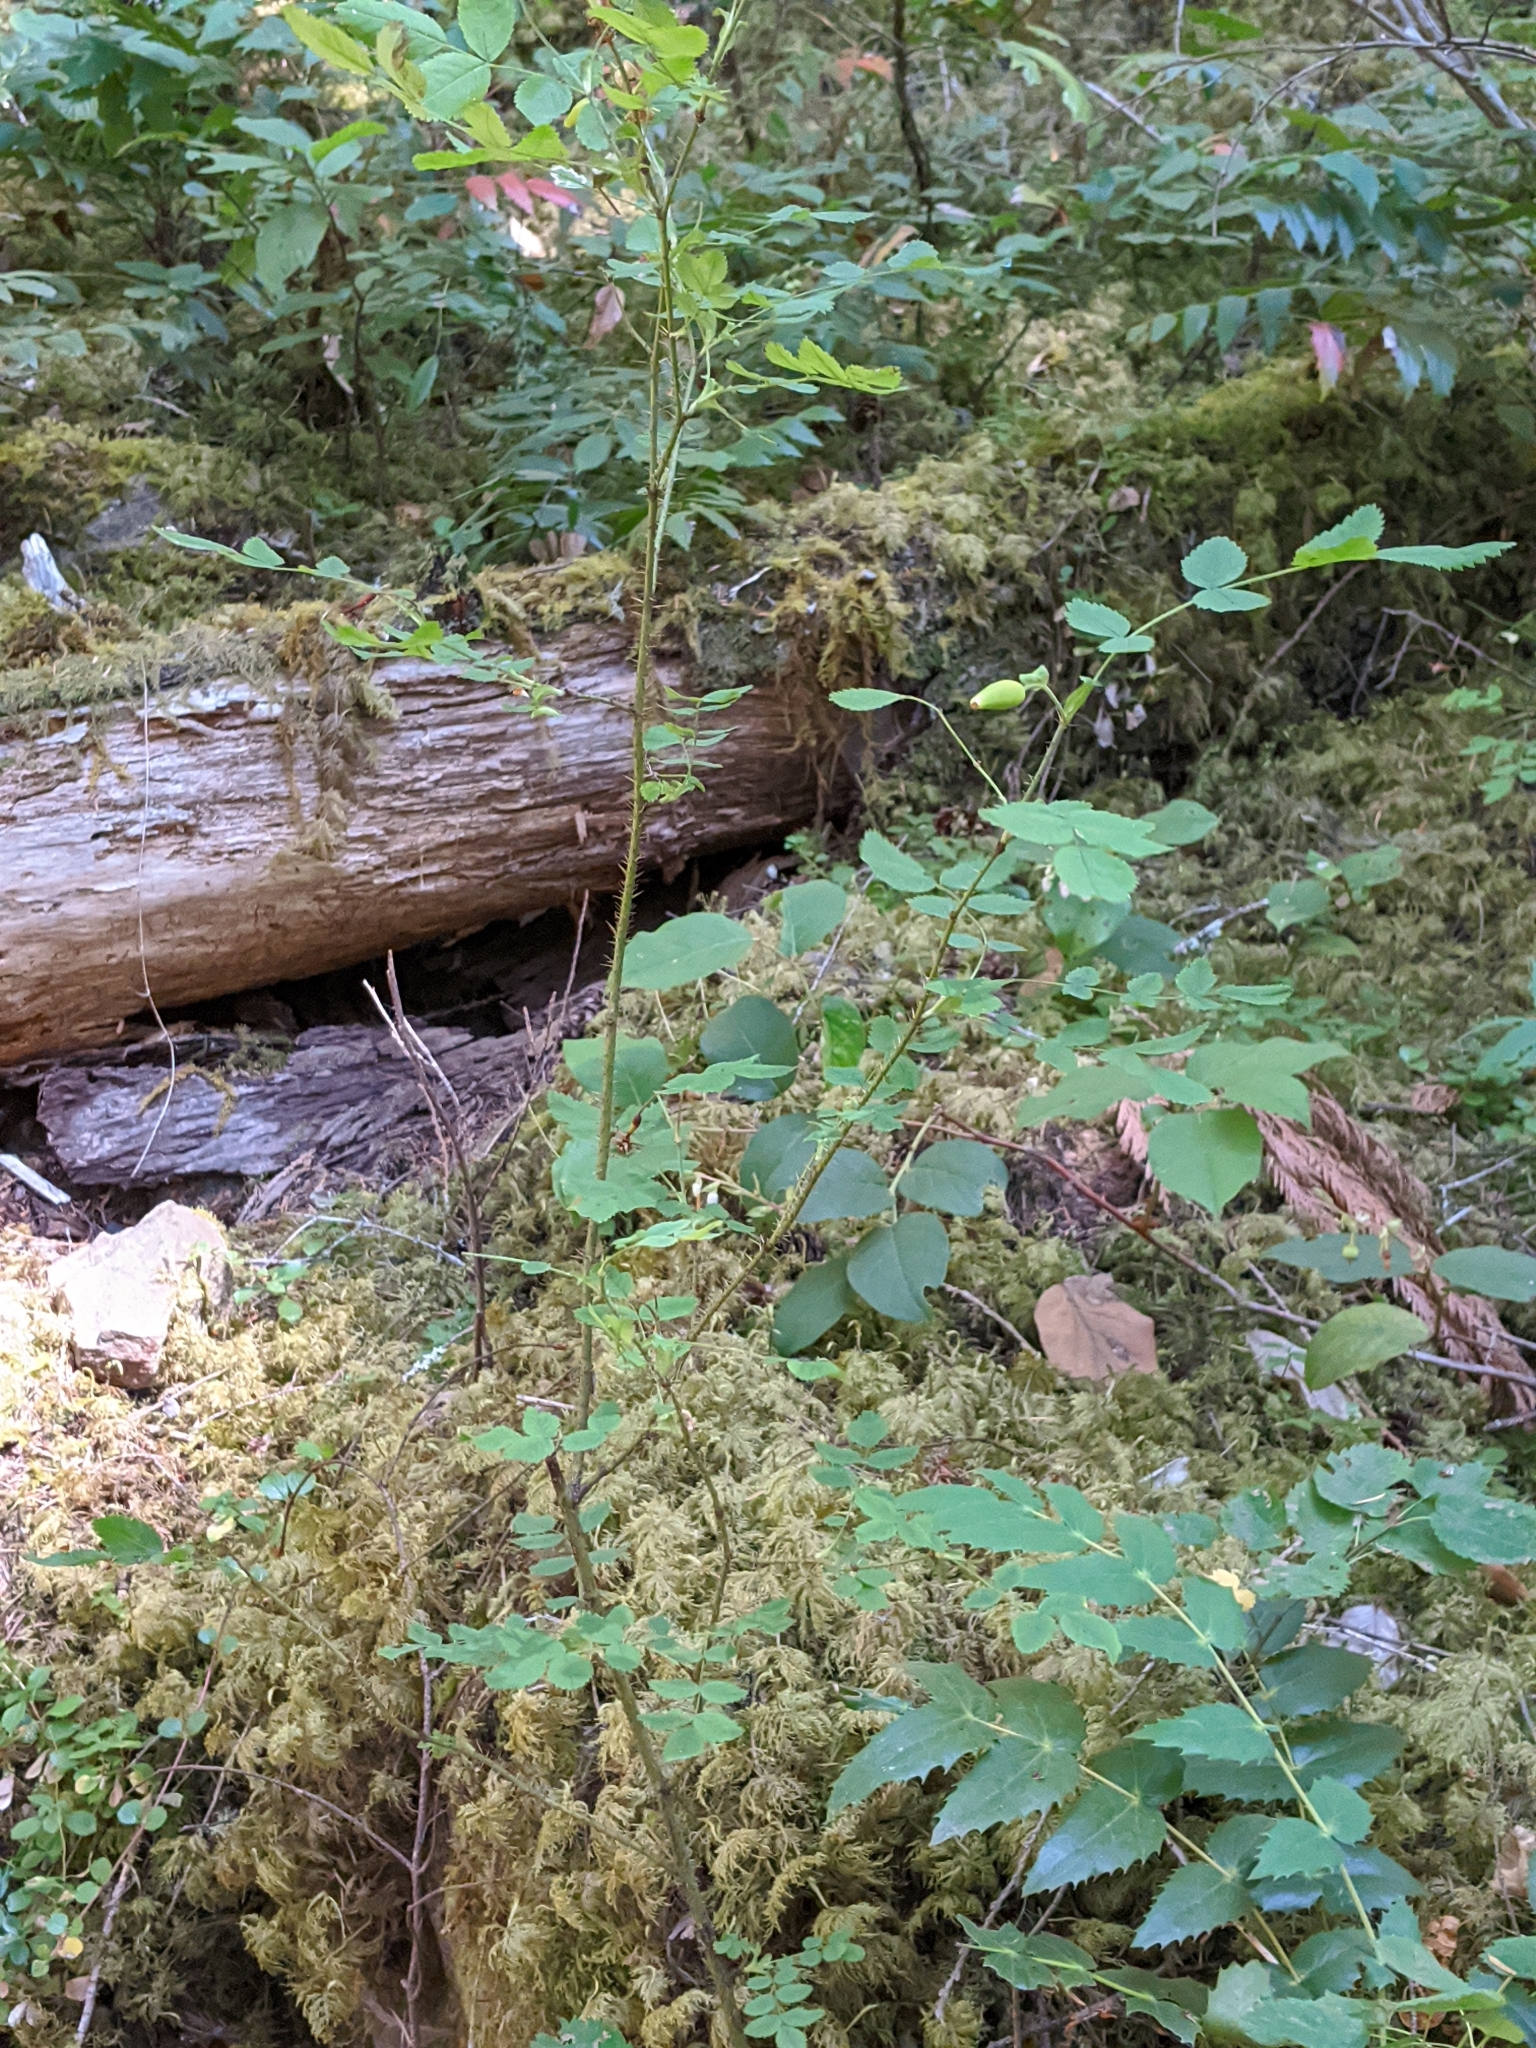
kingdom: Plantae
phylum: Tracheophyta
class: Magnoliopsida
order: Rosales
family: Rosaceae
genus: Rosa
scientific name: Rosa gymnocarpa
